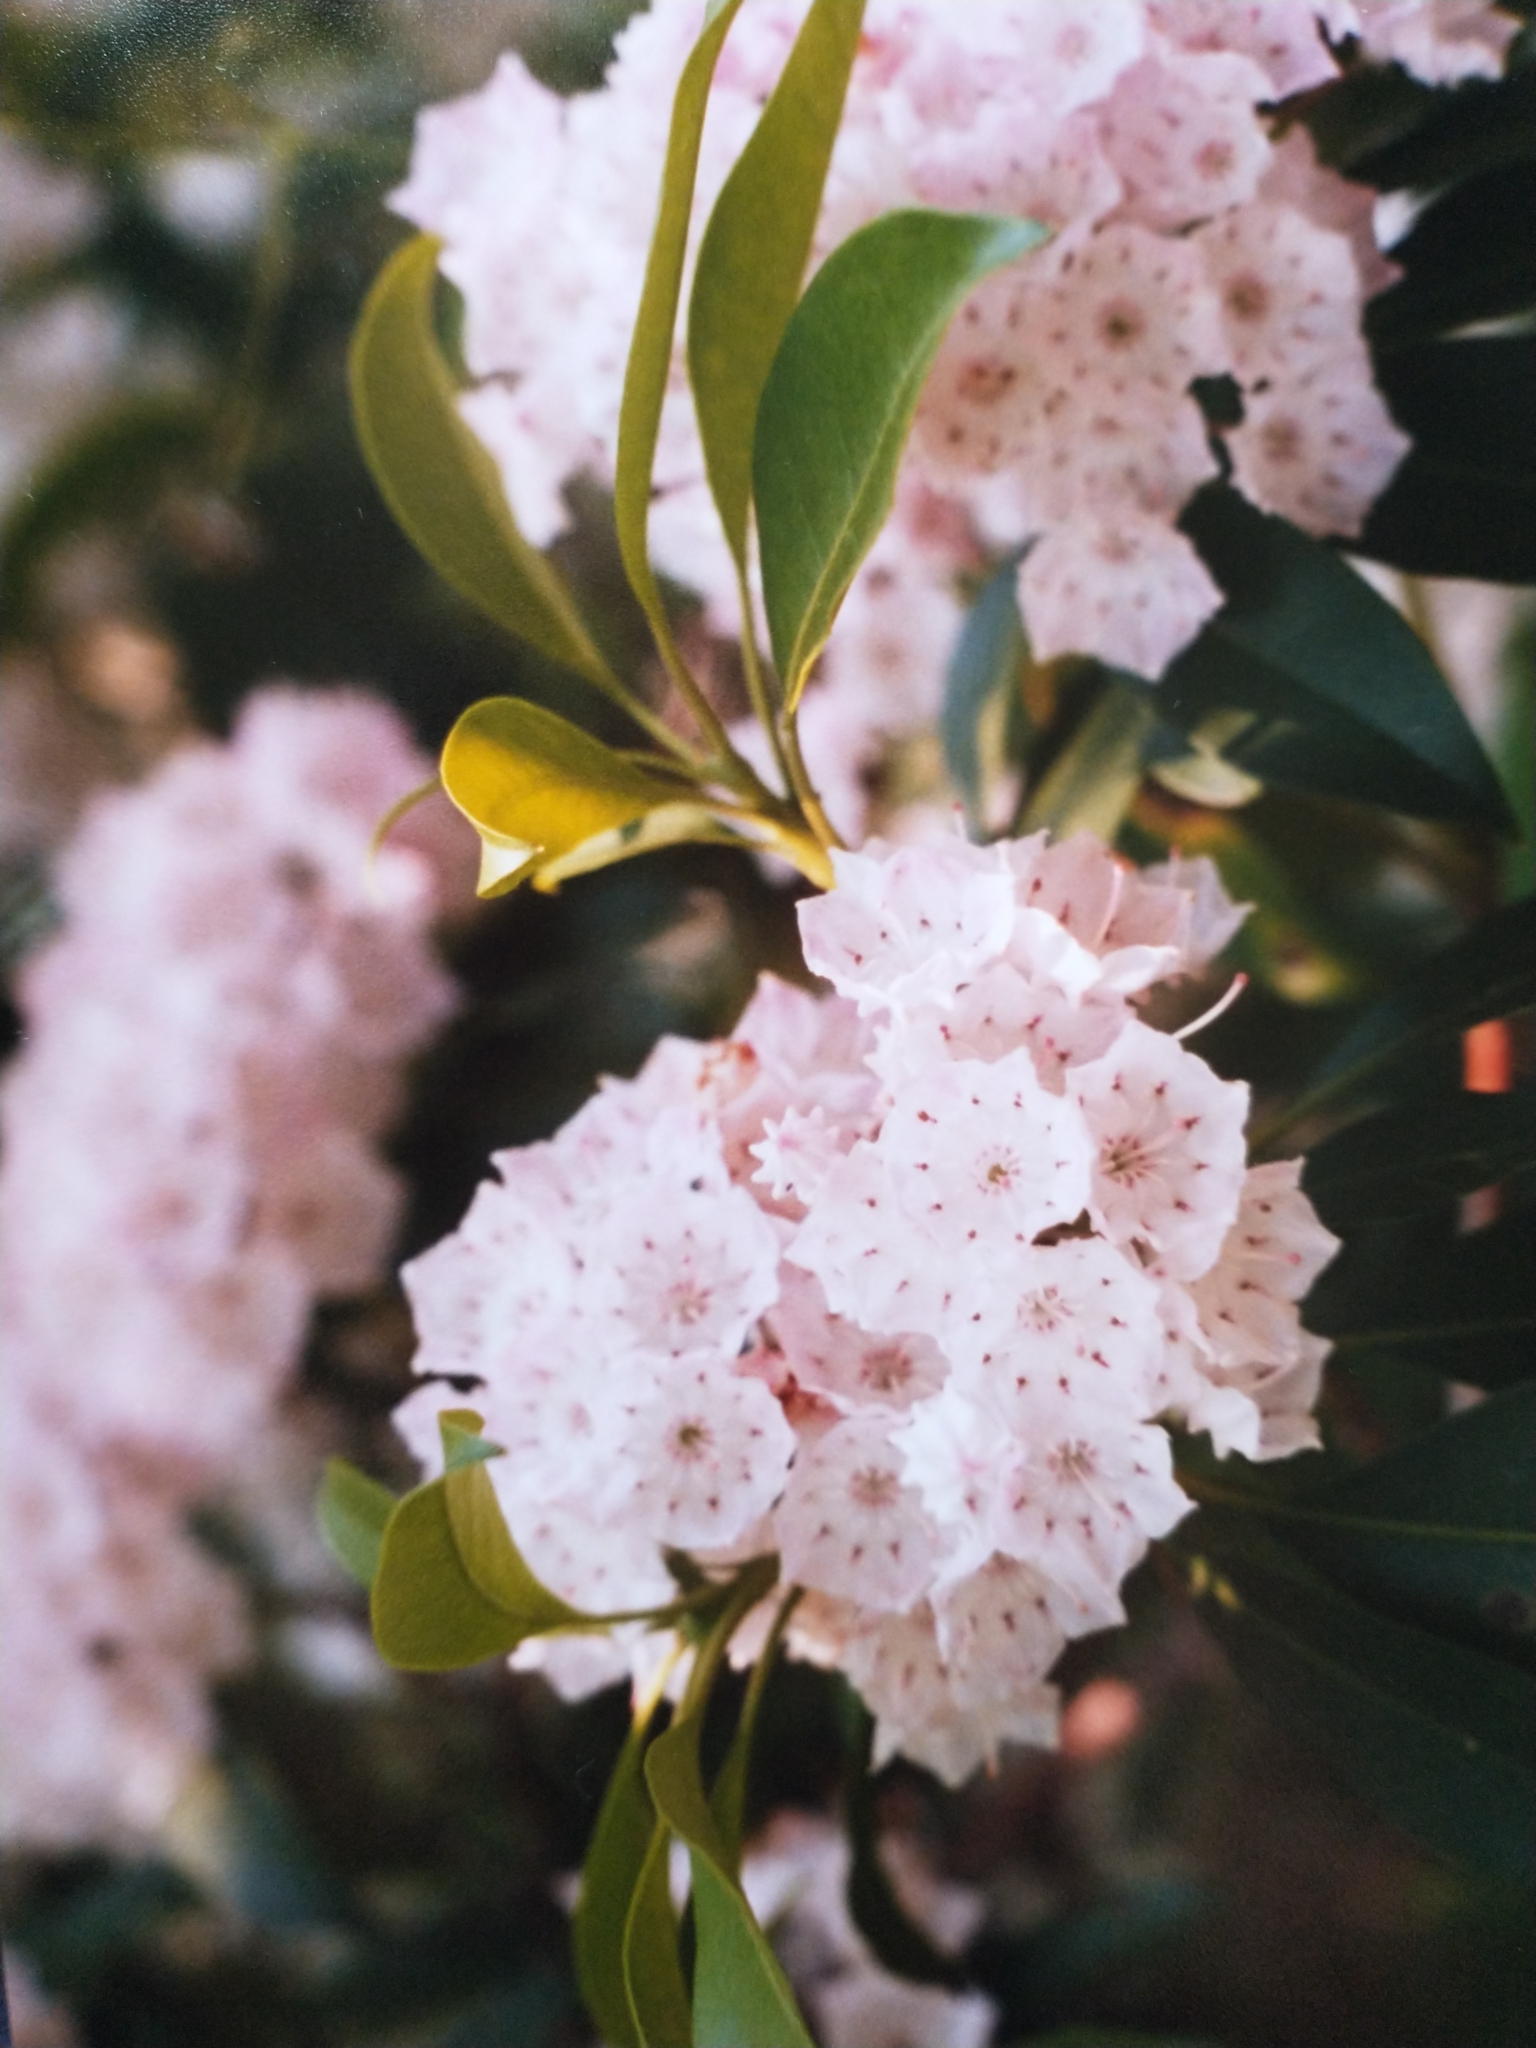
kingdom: Plantae
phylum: Tracheophyta
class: Magnoliopsida
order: Ericales
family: Ericaceae
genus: Kalmia
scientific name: Kalmia latifolia
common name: Mountain-laurel
